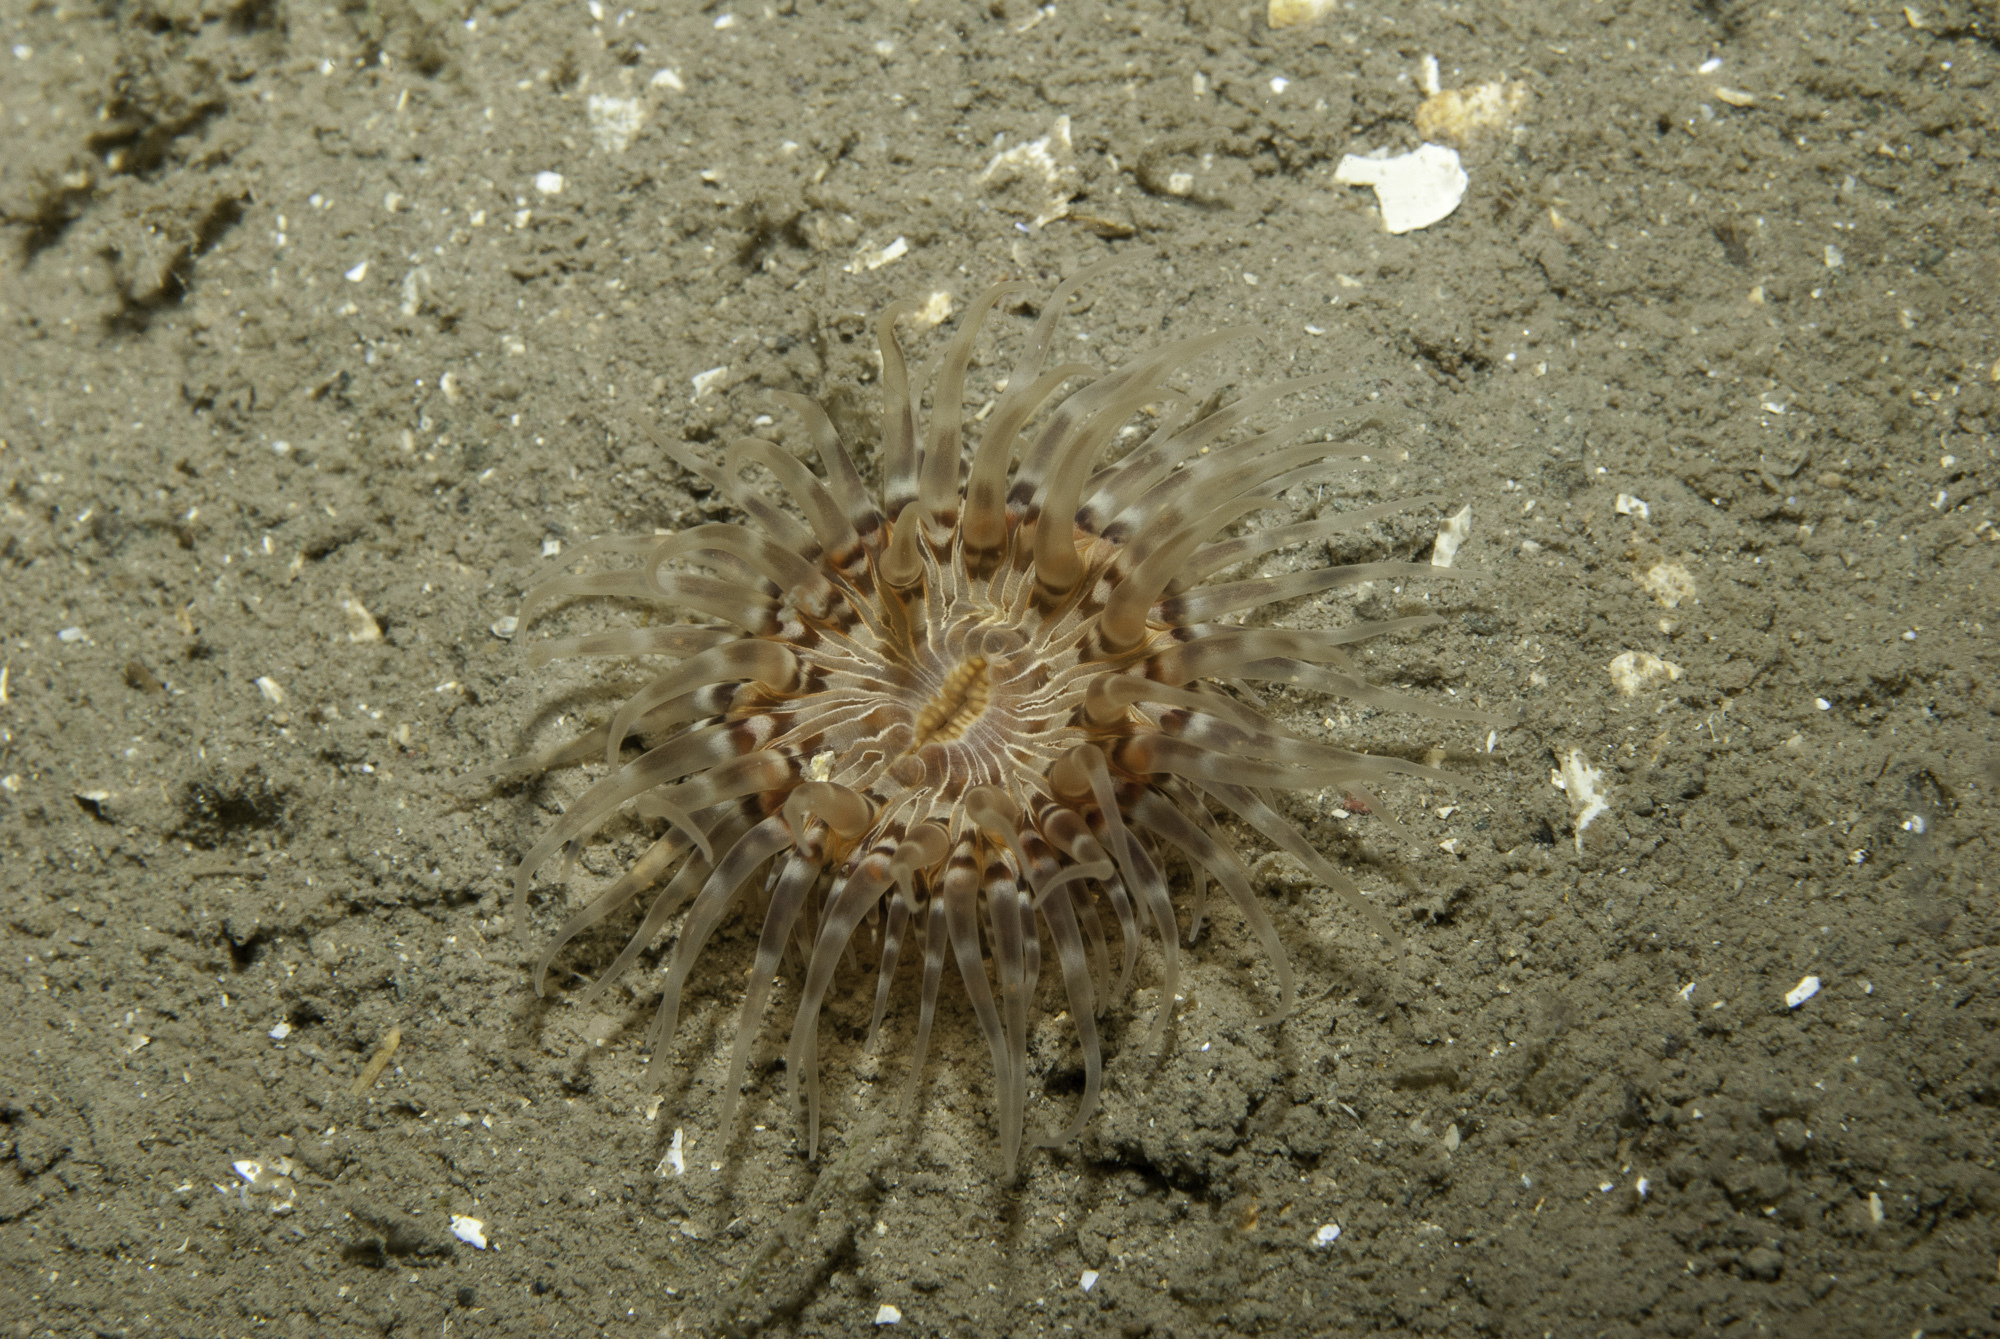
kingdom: Animalia
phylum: Cnidaria
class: Anthozoa
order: Actiniaria
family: Sagartiidae
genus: Sagartia
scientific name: Sagartia lacerata
